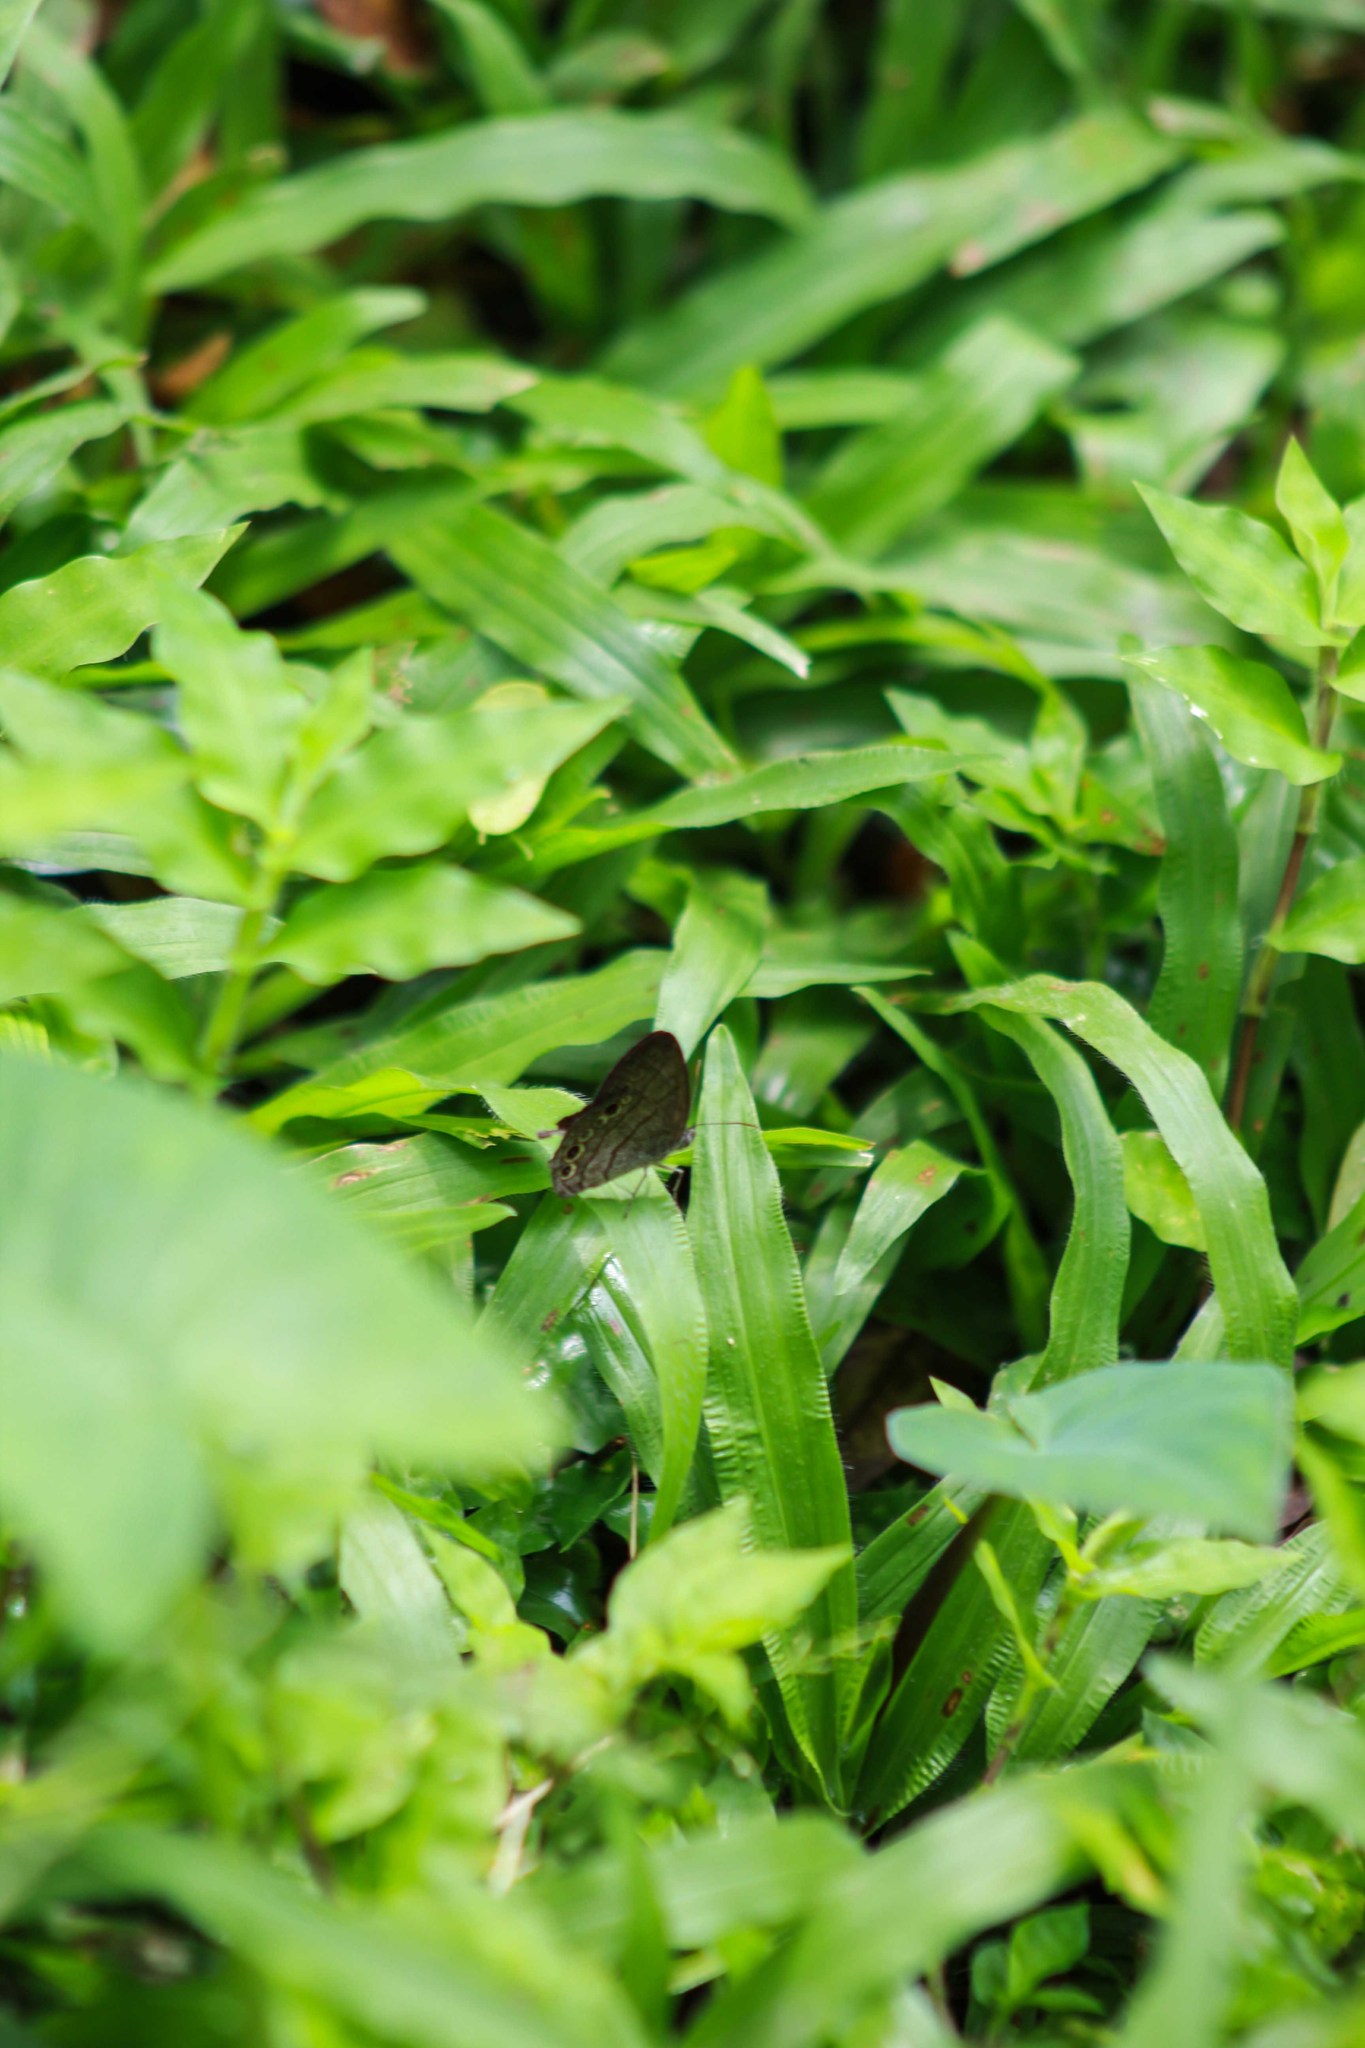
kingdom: Animalia
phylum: Arthropoda
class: Insecta
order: Lepidoptera
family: Nymphalidae
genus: Hermeuptychia
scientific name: Hermeuptychia hermes
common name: Hermes satyr
